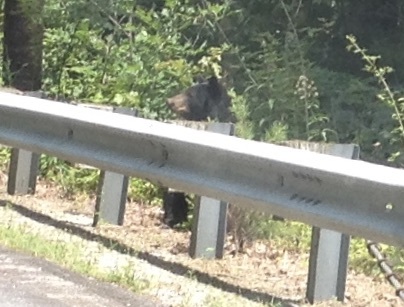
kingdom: Animalia
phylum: Chordata
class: Mammalia
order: Carnivora
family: Ursidae
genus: Ursus
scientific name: Ursus americanus
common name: American black bear
